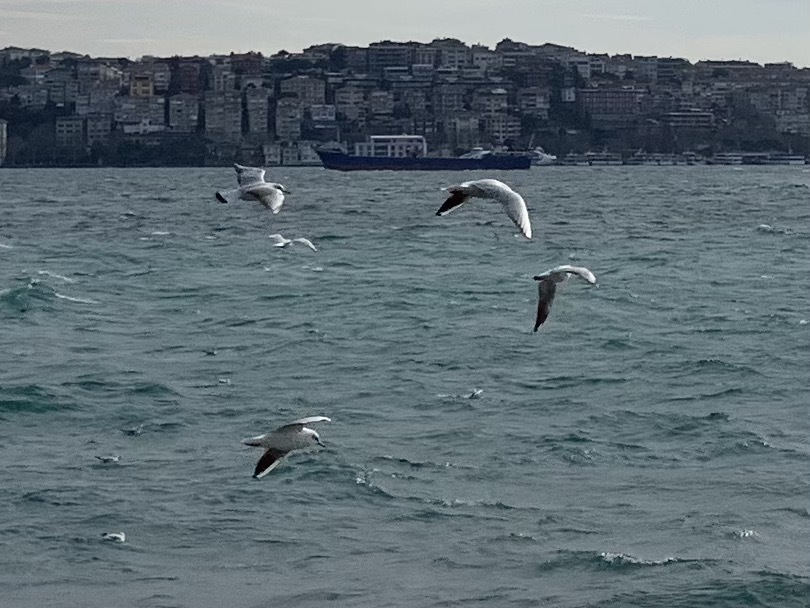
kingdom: Animalia
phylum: Chordata
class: Aves
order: Charadriiformes
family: Laridae
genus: Chroicocephalus
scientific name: Chroicocephalus ridibundus
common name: Black-headed gull
